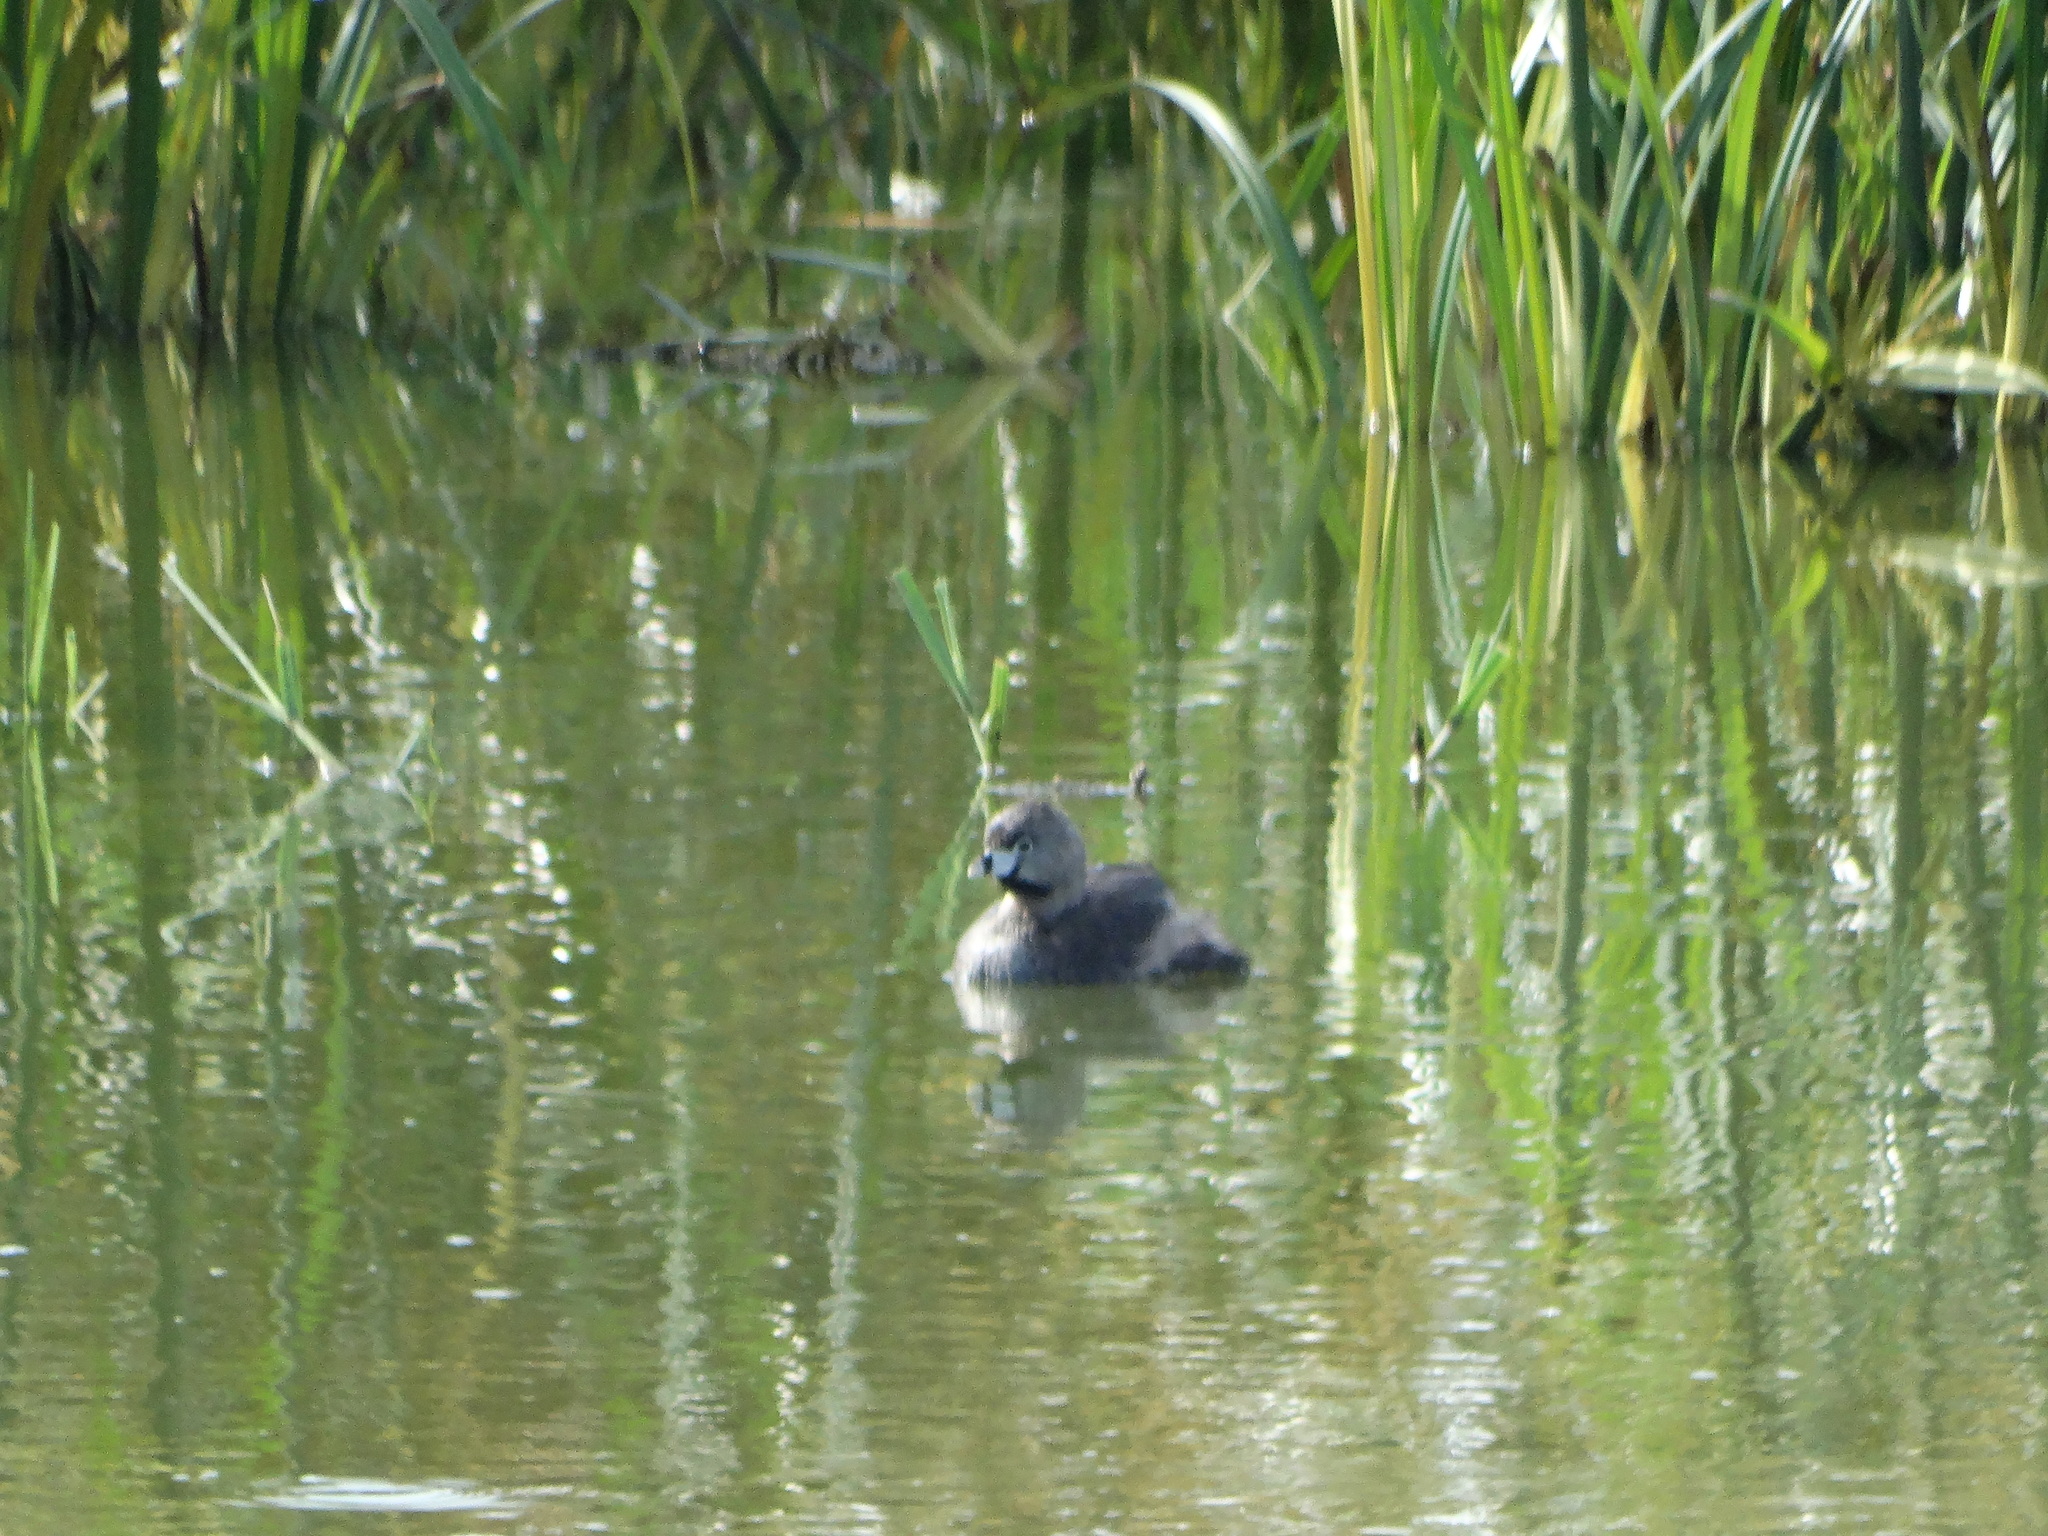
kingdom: Animalia
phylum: Chordata
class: Aves
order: Podicipediformes
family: Podicipedidae
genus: Podilymbus
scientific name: Podilymbus podiceps
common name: Pied-billed grebe
